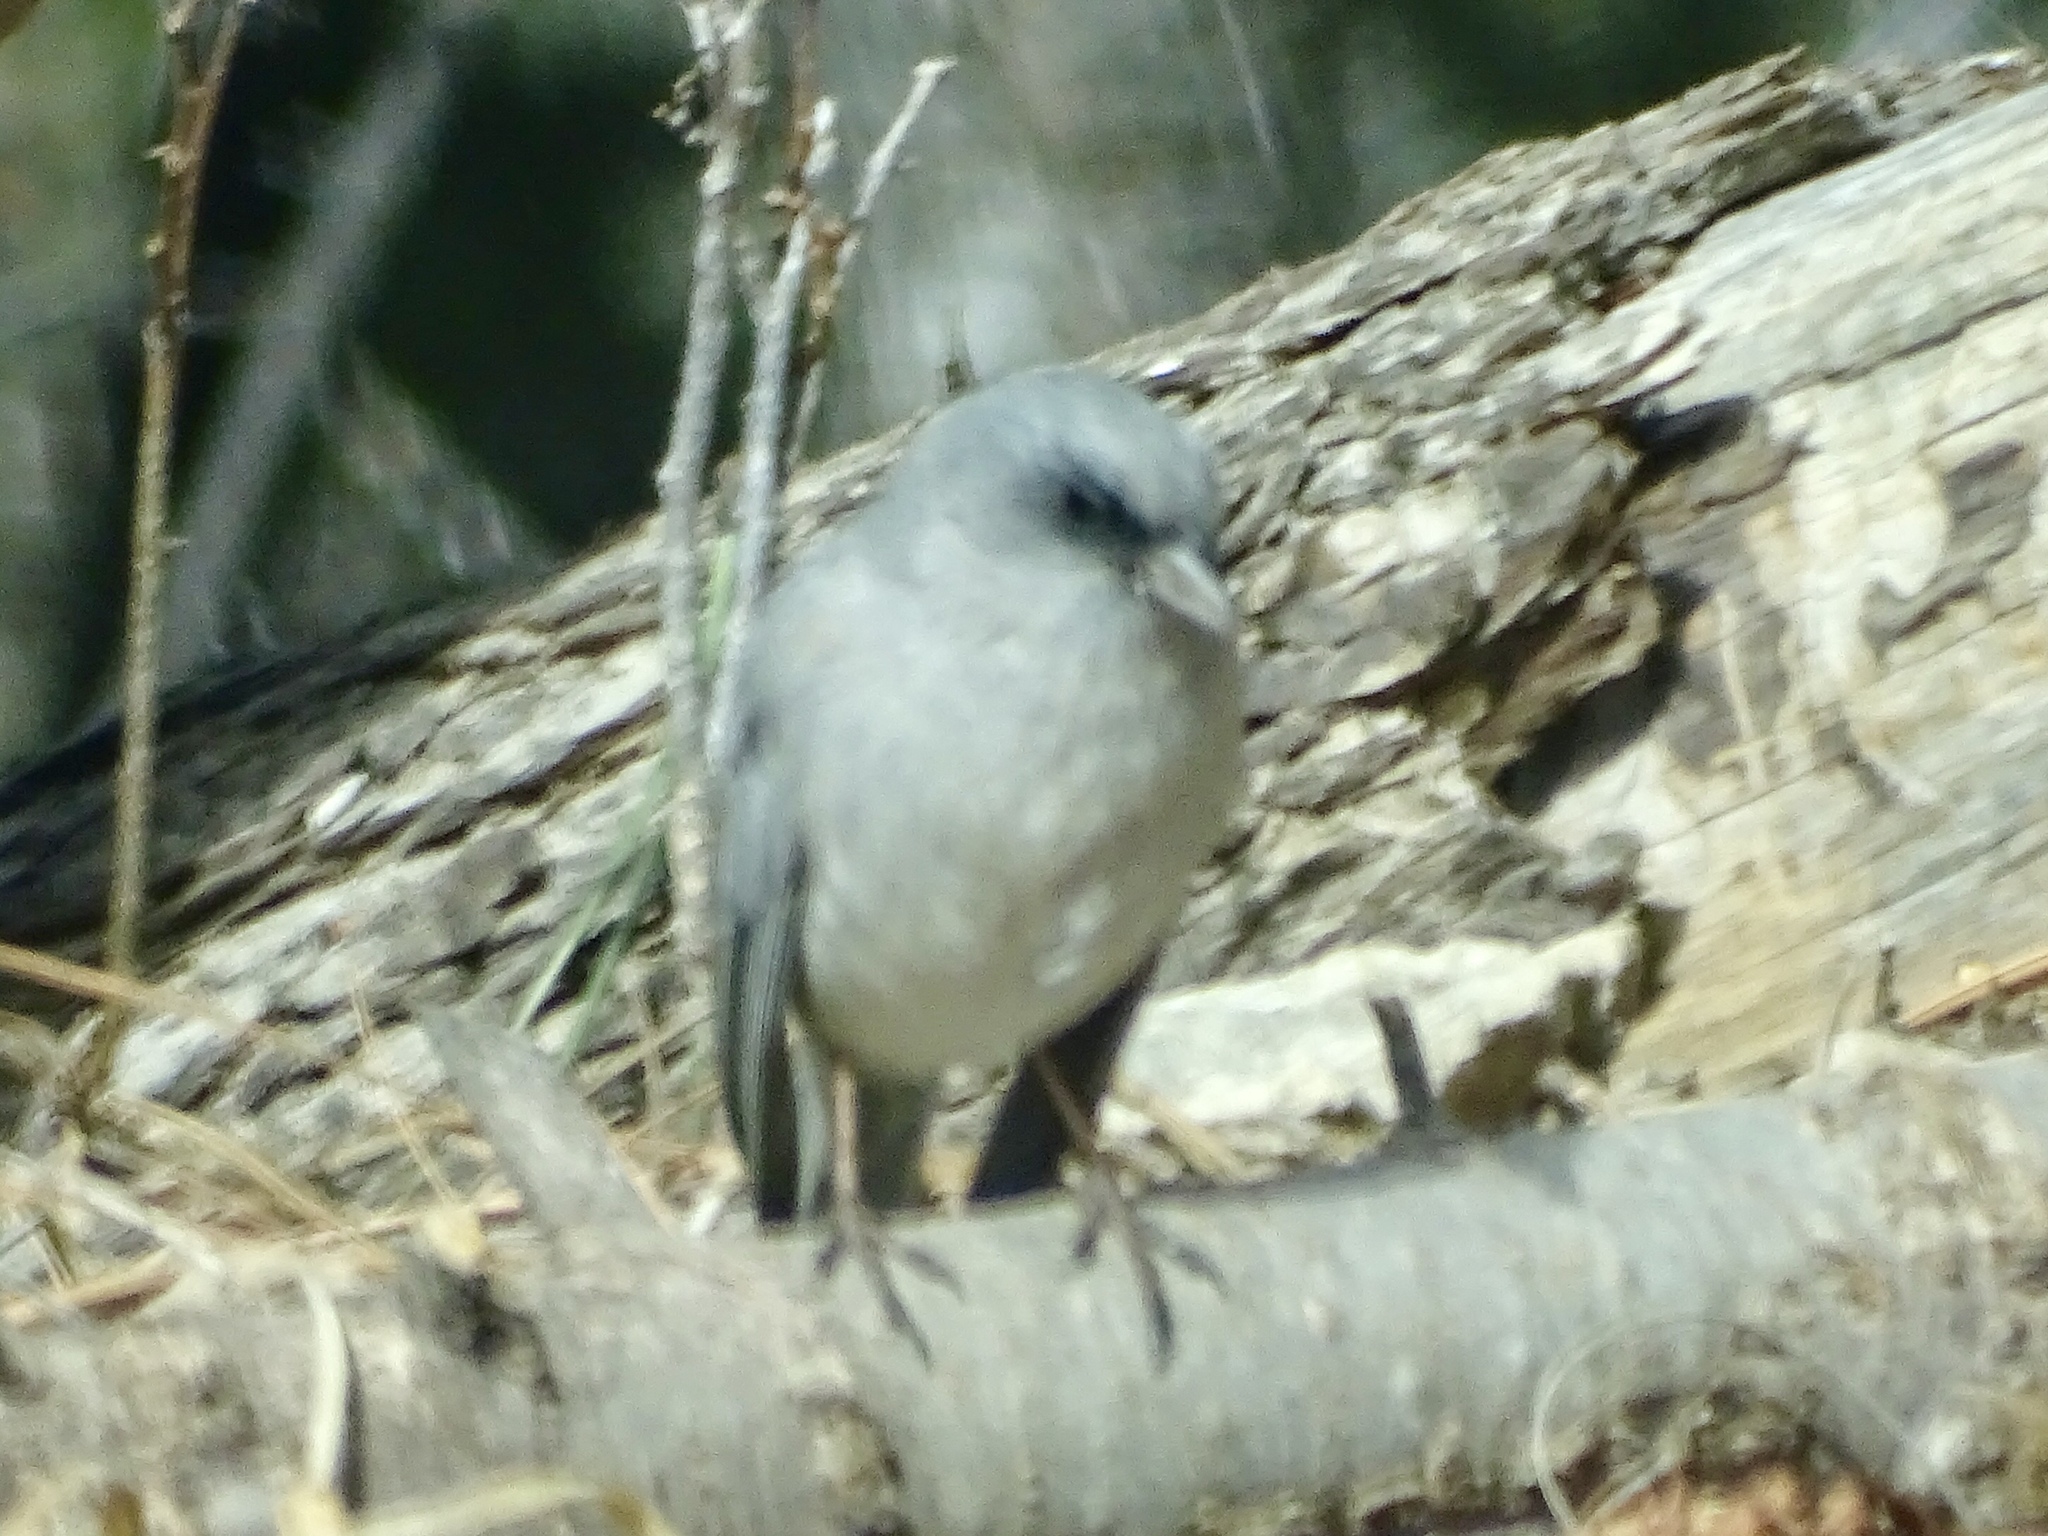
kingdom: Animalia
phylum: Chordata
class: Aves
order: Passeriformes
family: Passerellidae
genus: Junco
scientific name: Junco hyemalis
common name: Dark-eyed junco
